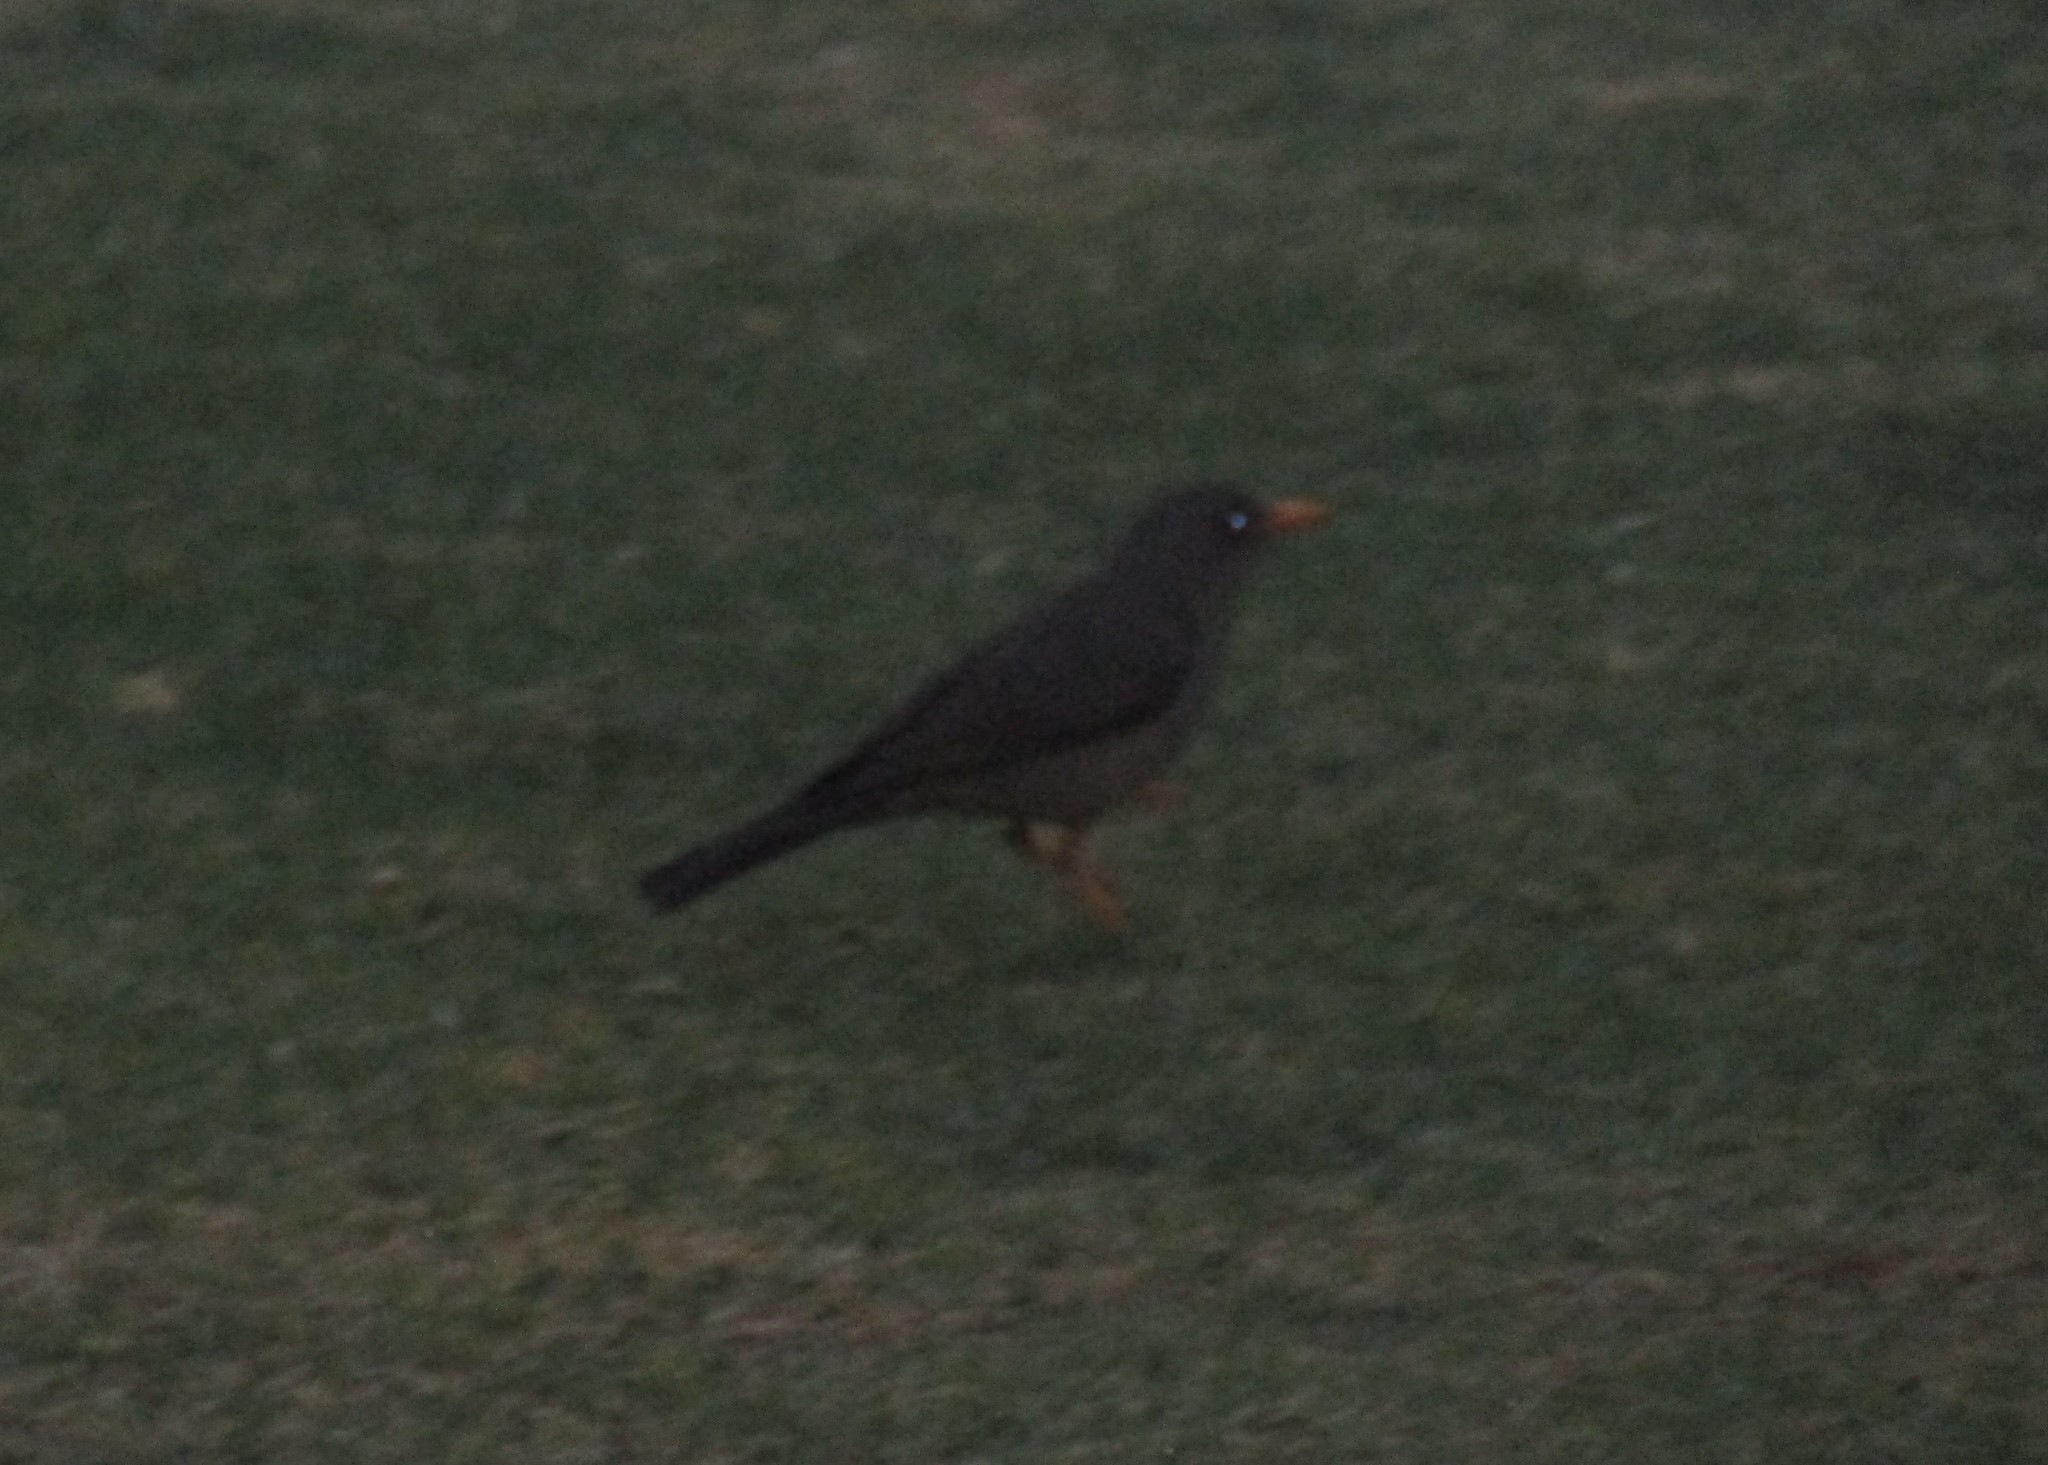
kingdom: Animalia
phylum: Chordata
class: Aves
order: Passeriformes
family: Turdidae
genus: Turdus
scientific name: Turdus smithi
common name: Karoo thrush
